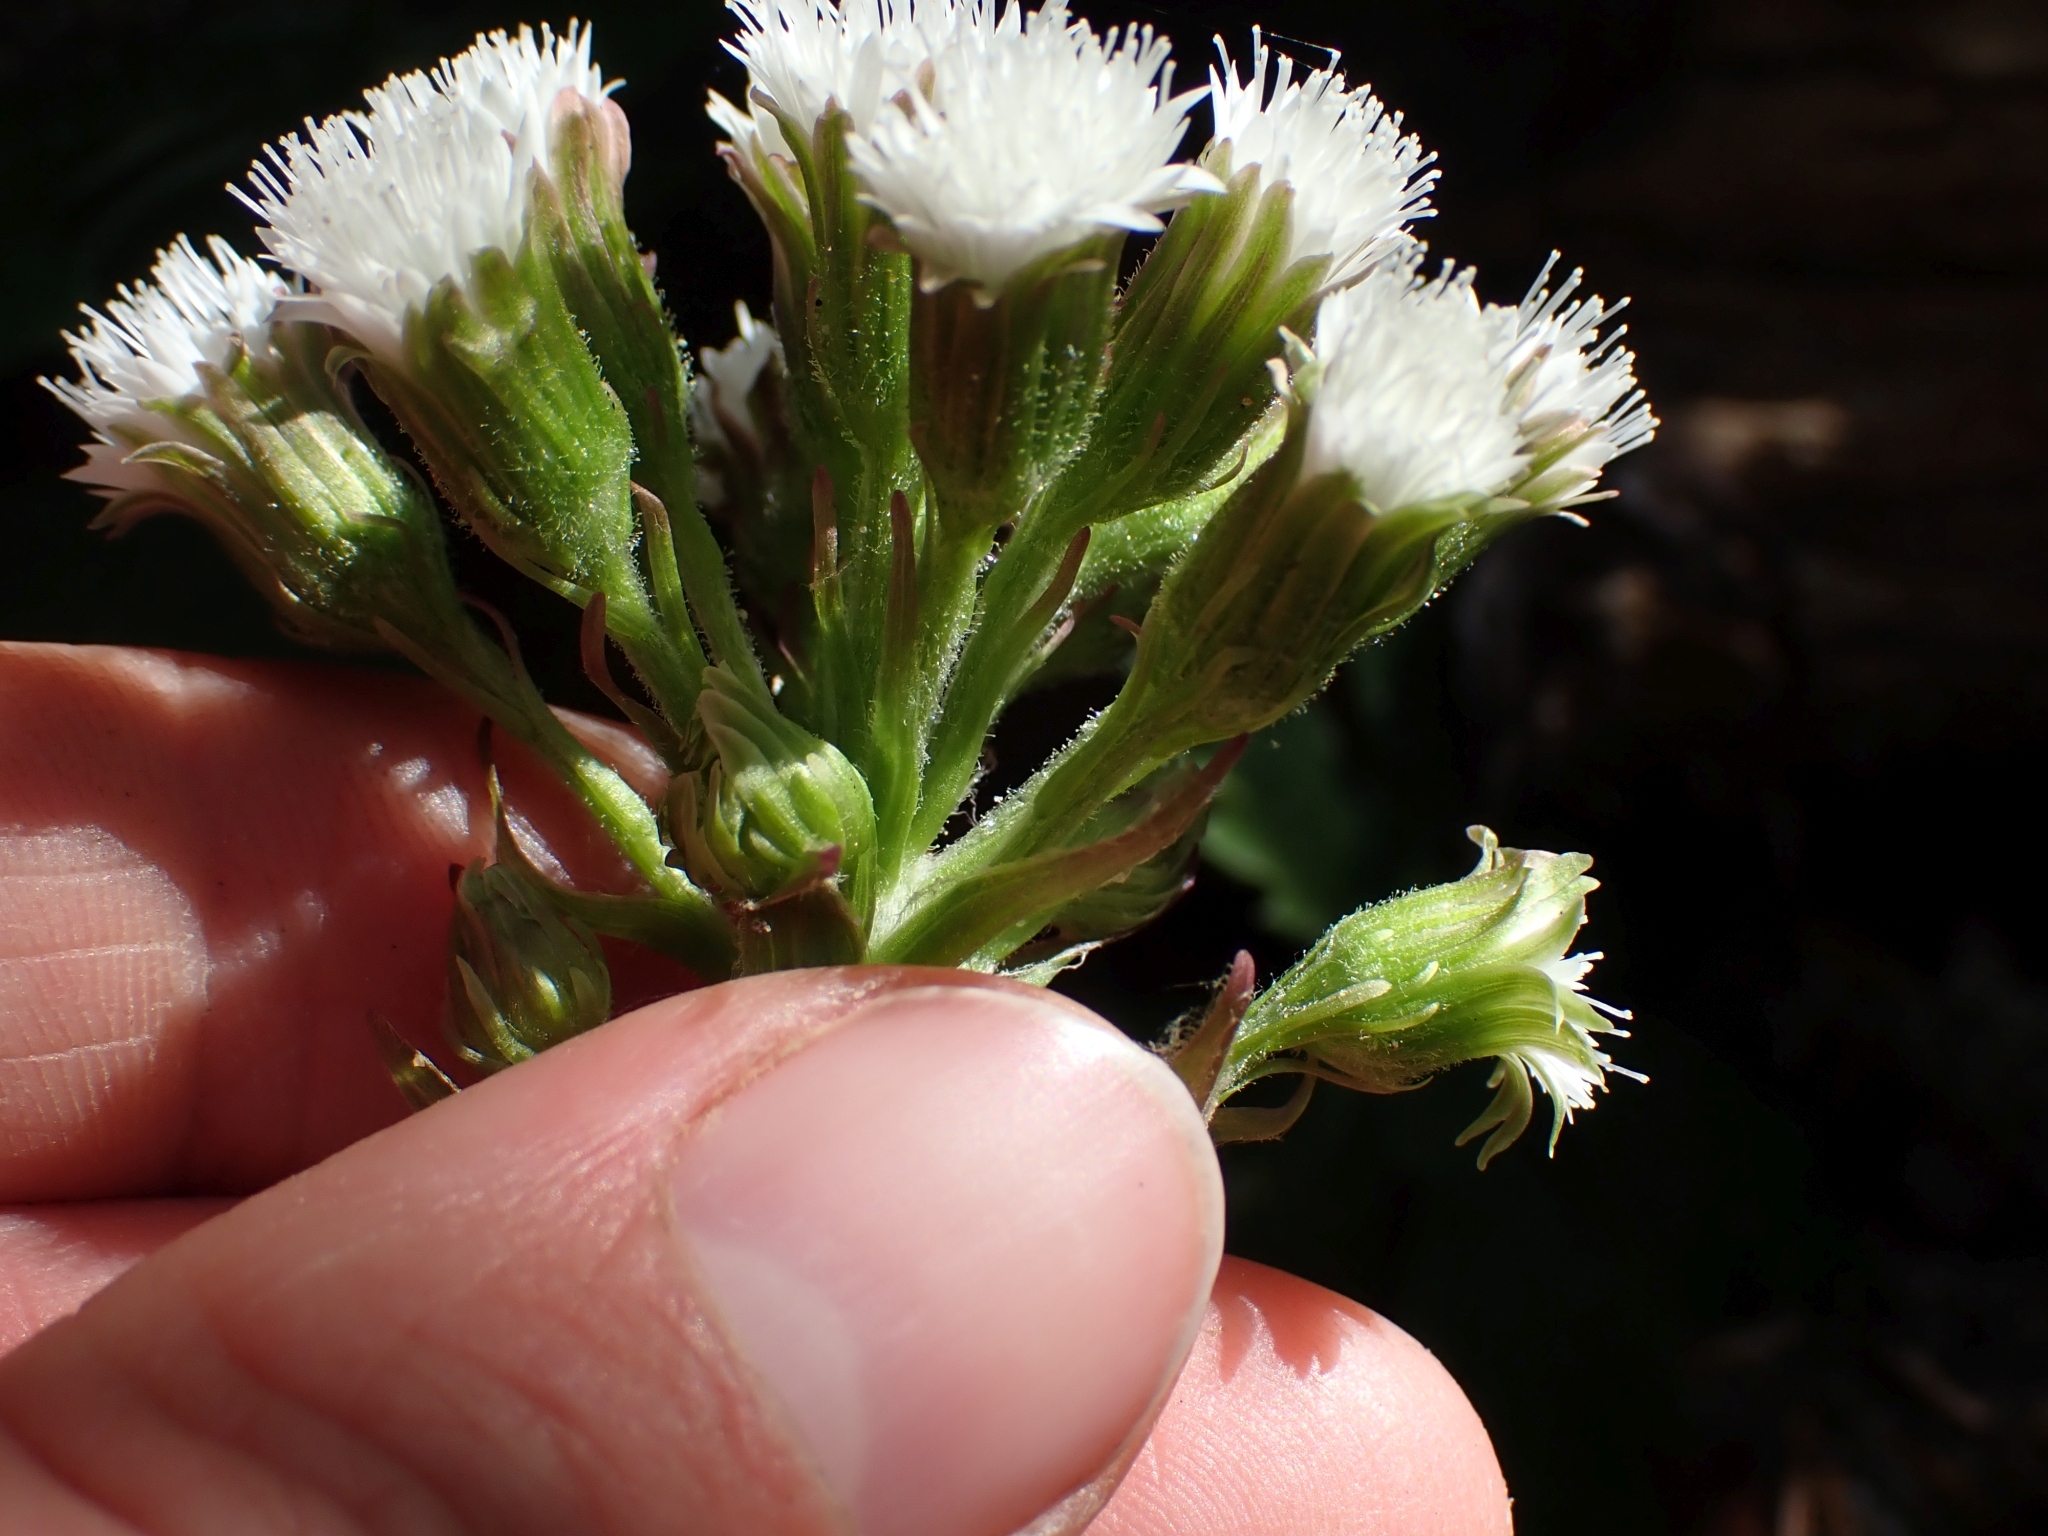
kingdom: Plantae
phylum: Tracheophyta
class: Magnoliopsida
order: Asterales
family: Asteraceae
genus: Petasites
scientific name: Petasites frigidus
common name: Arctic butterbur
